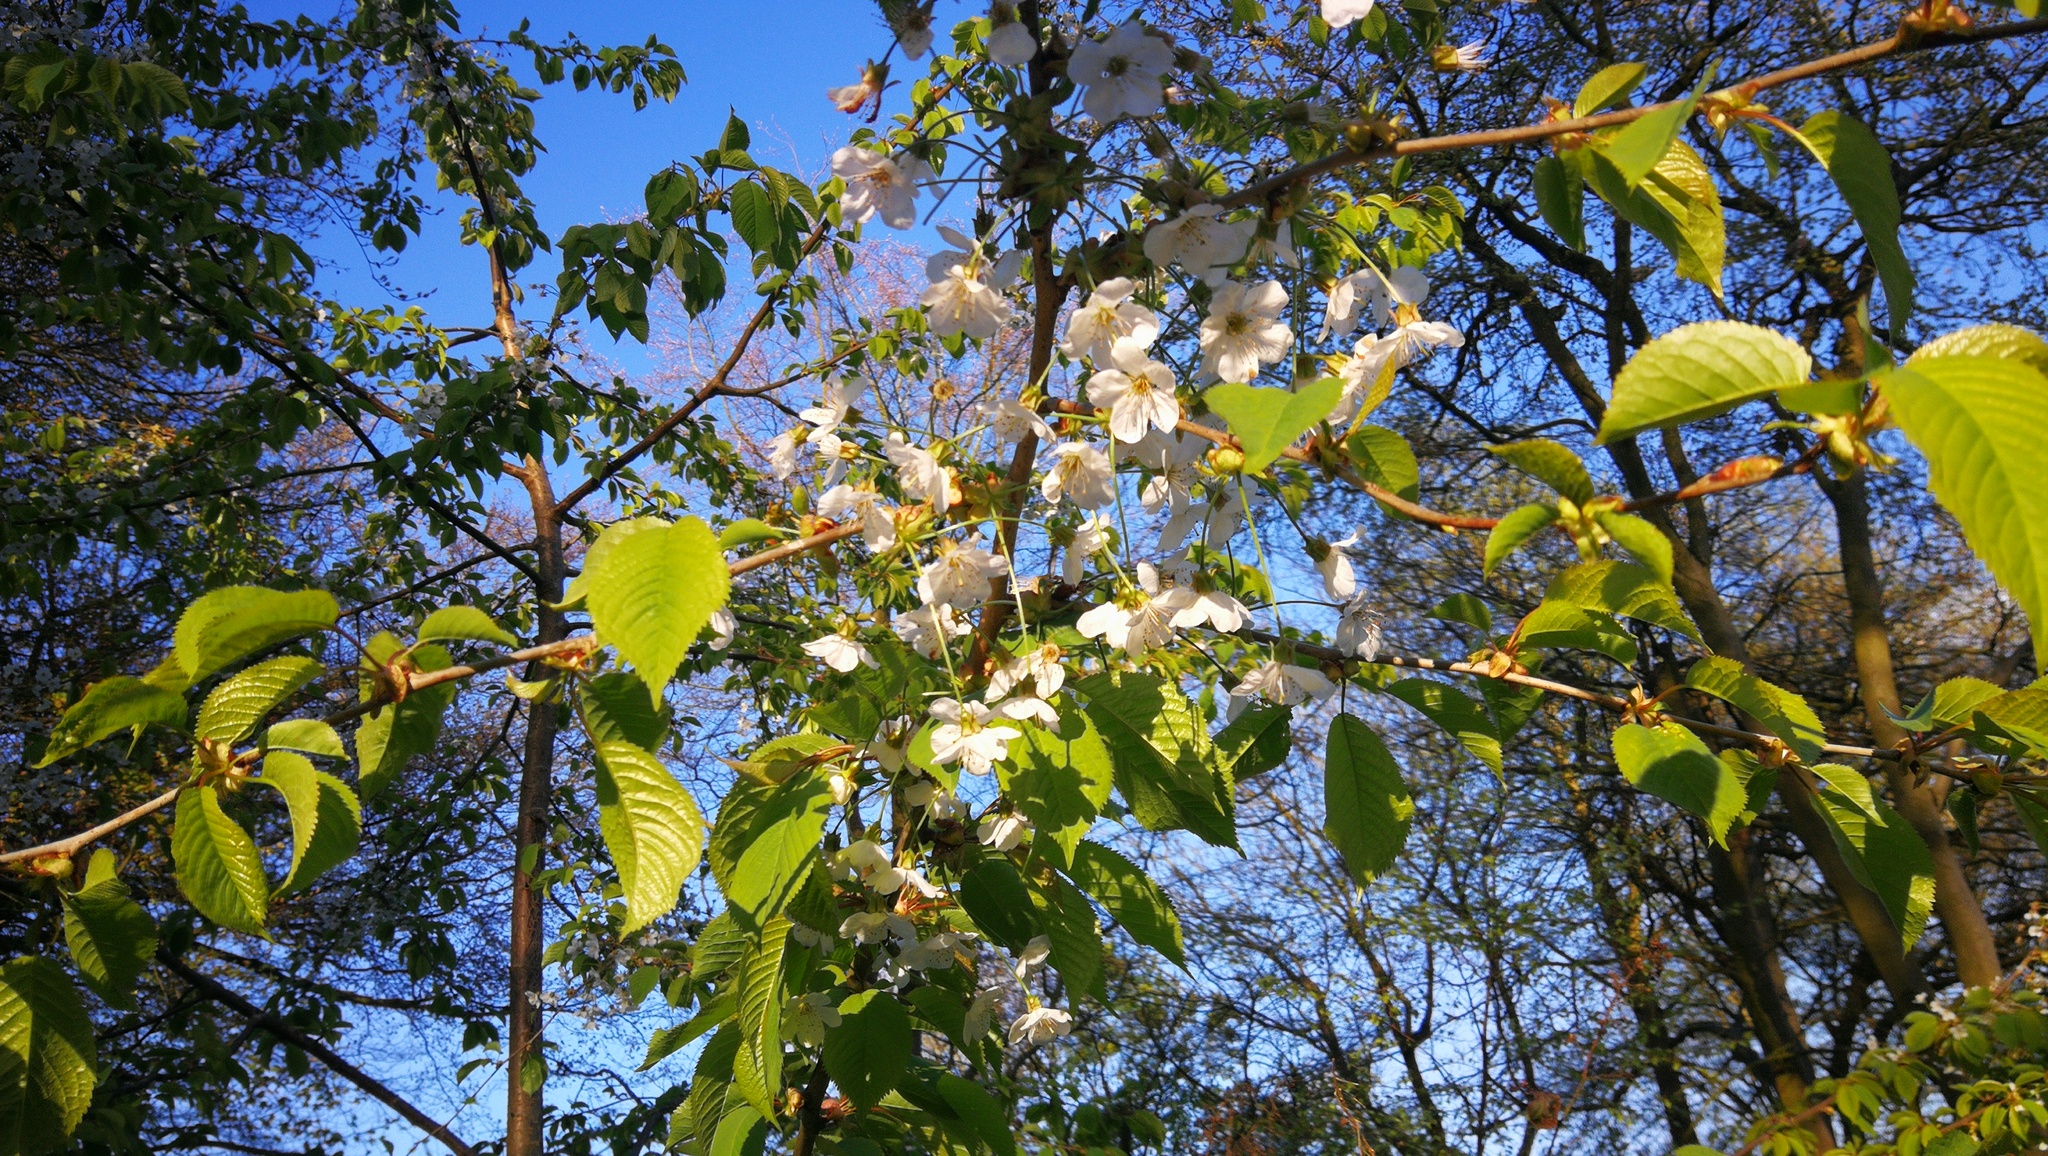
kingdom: Plantae
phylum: Tracheophyta
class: Magnoliopsida
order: Rosales
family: Rosaceae
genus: Prunus
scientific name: Prunus avium
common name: Sweet cherry
